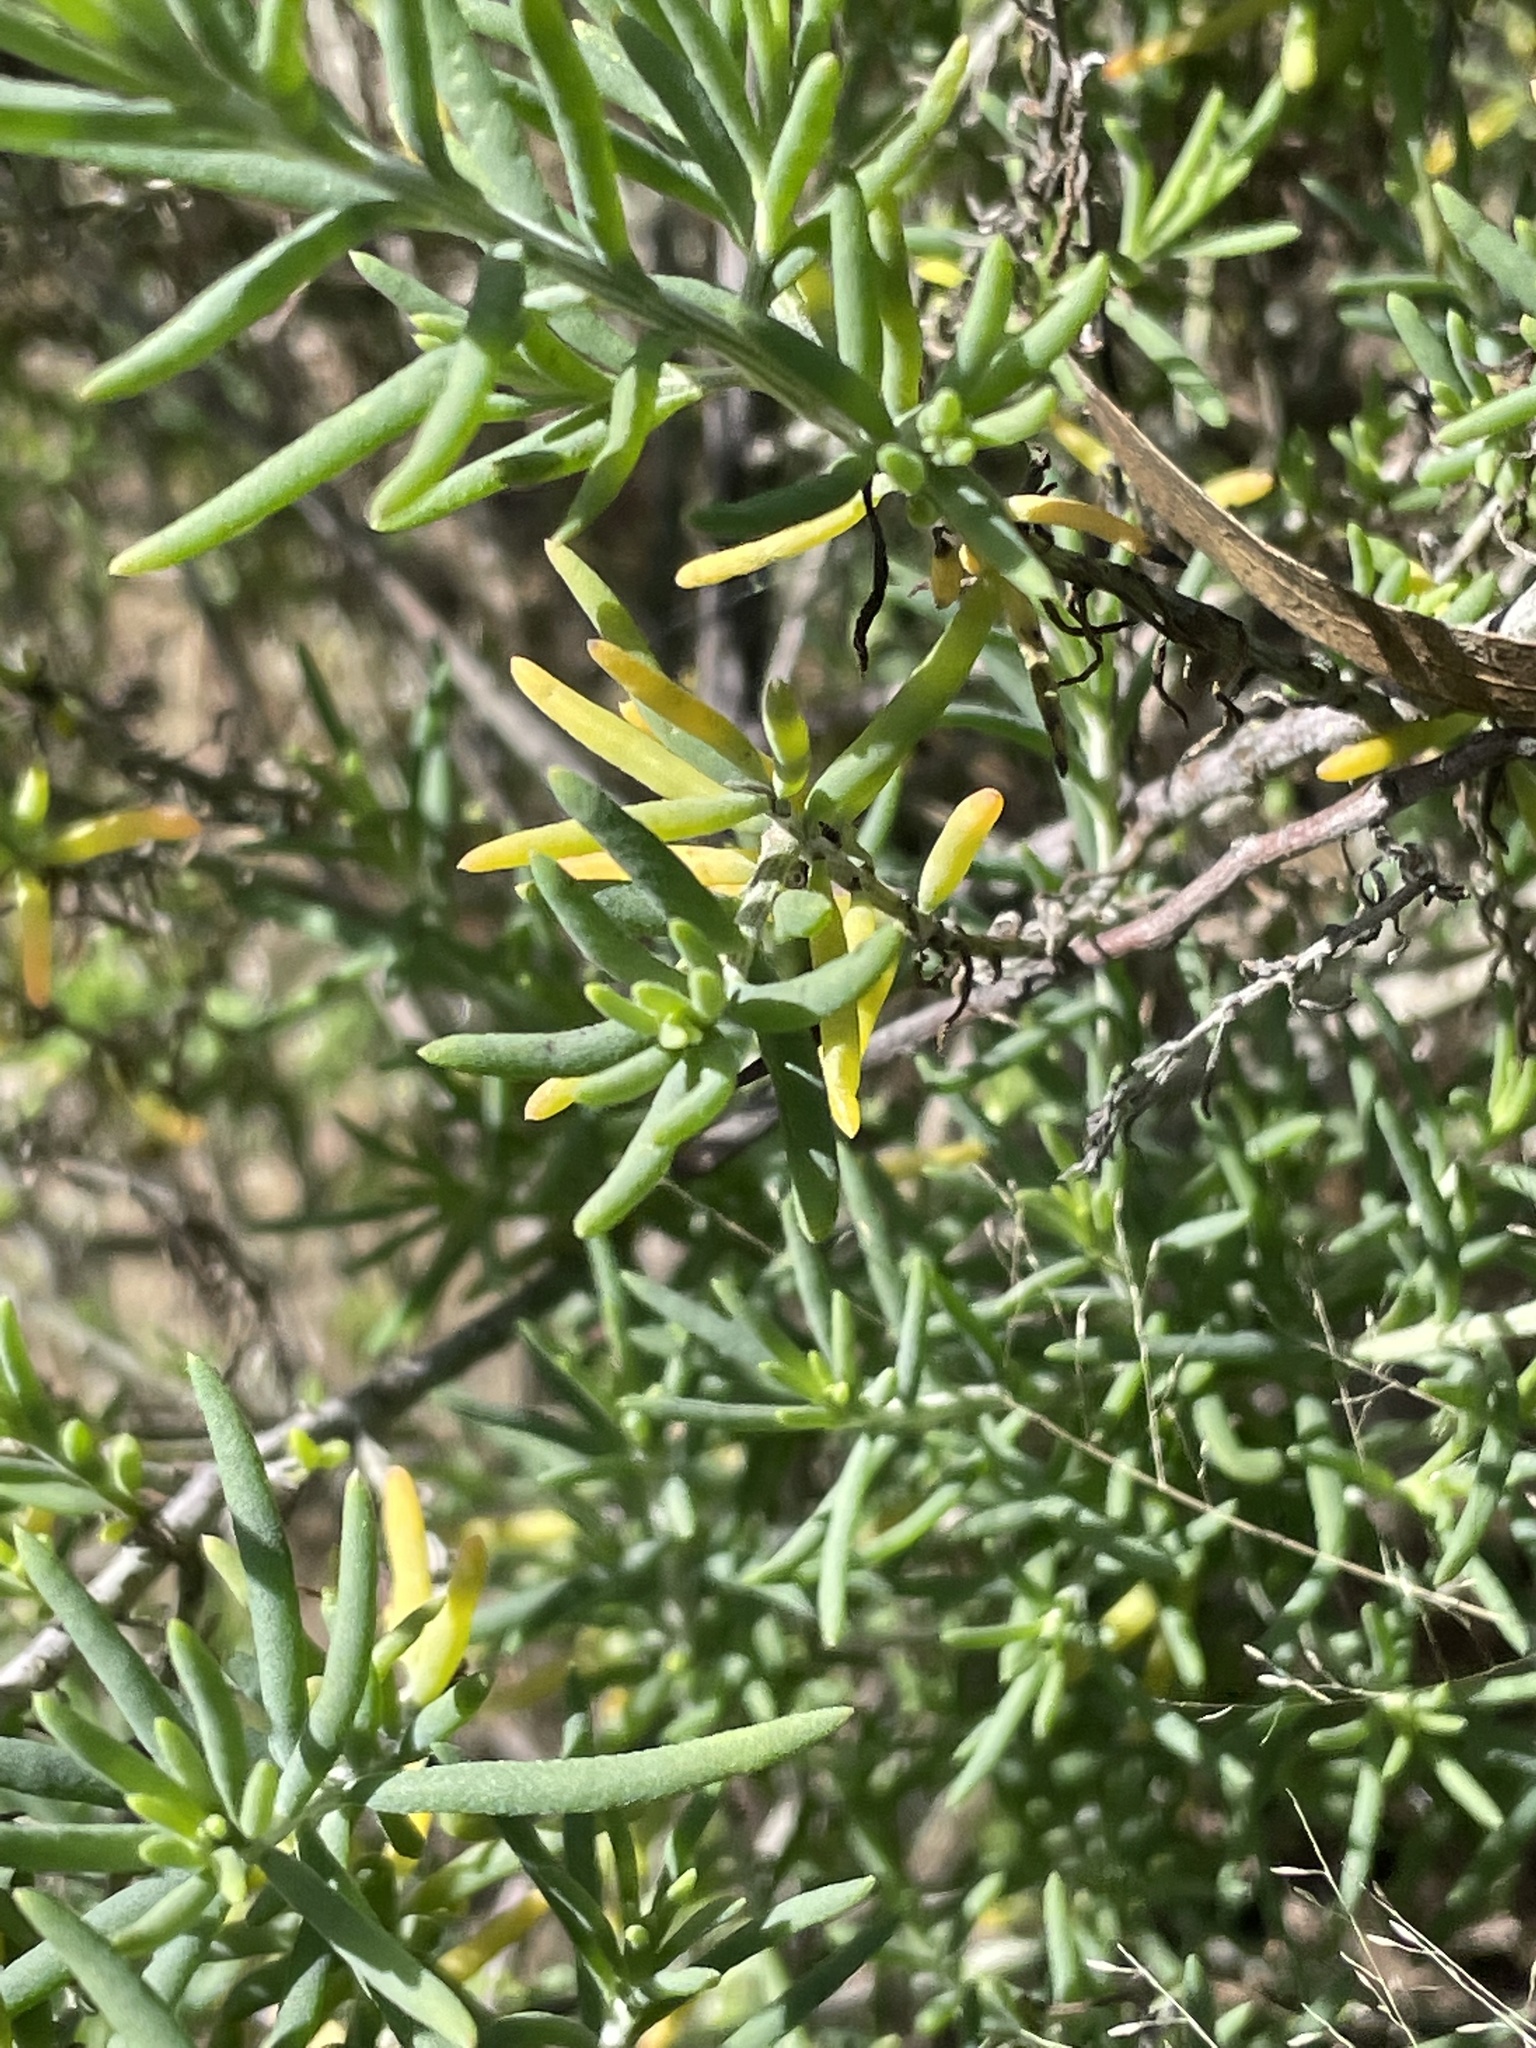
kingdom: Plantae
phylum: Tracheophyta
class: Magnoliopsida
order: Caryophyllales
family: Amaranthaceae
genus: Enchylaena
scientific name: Enchylaena tomentosa
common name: Ruby saltbush
